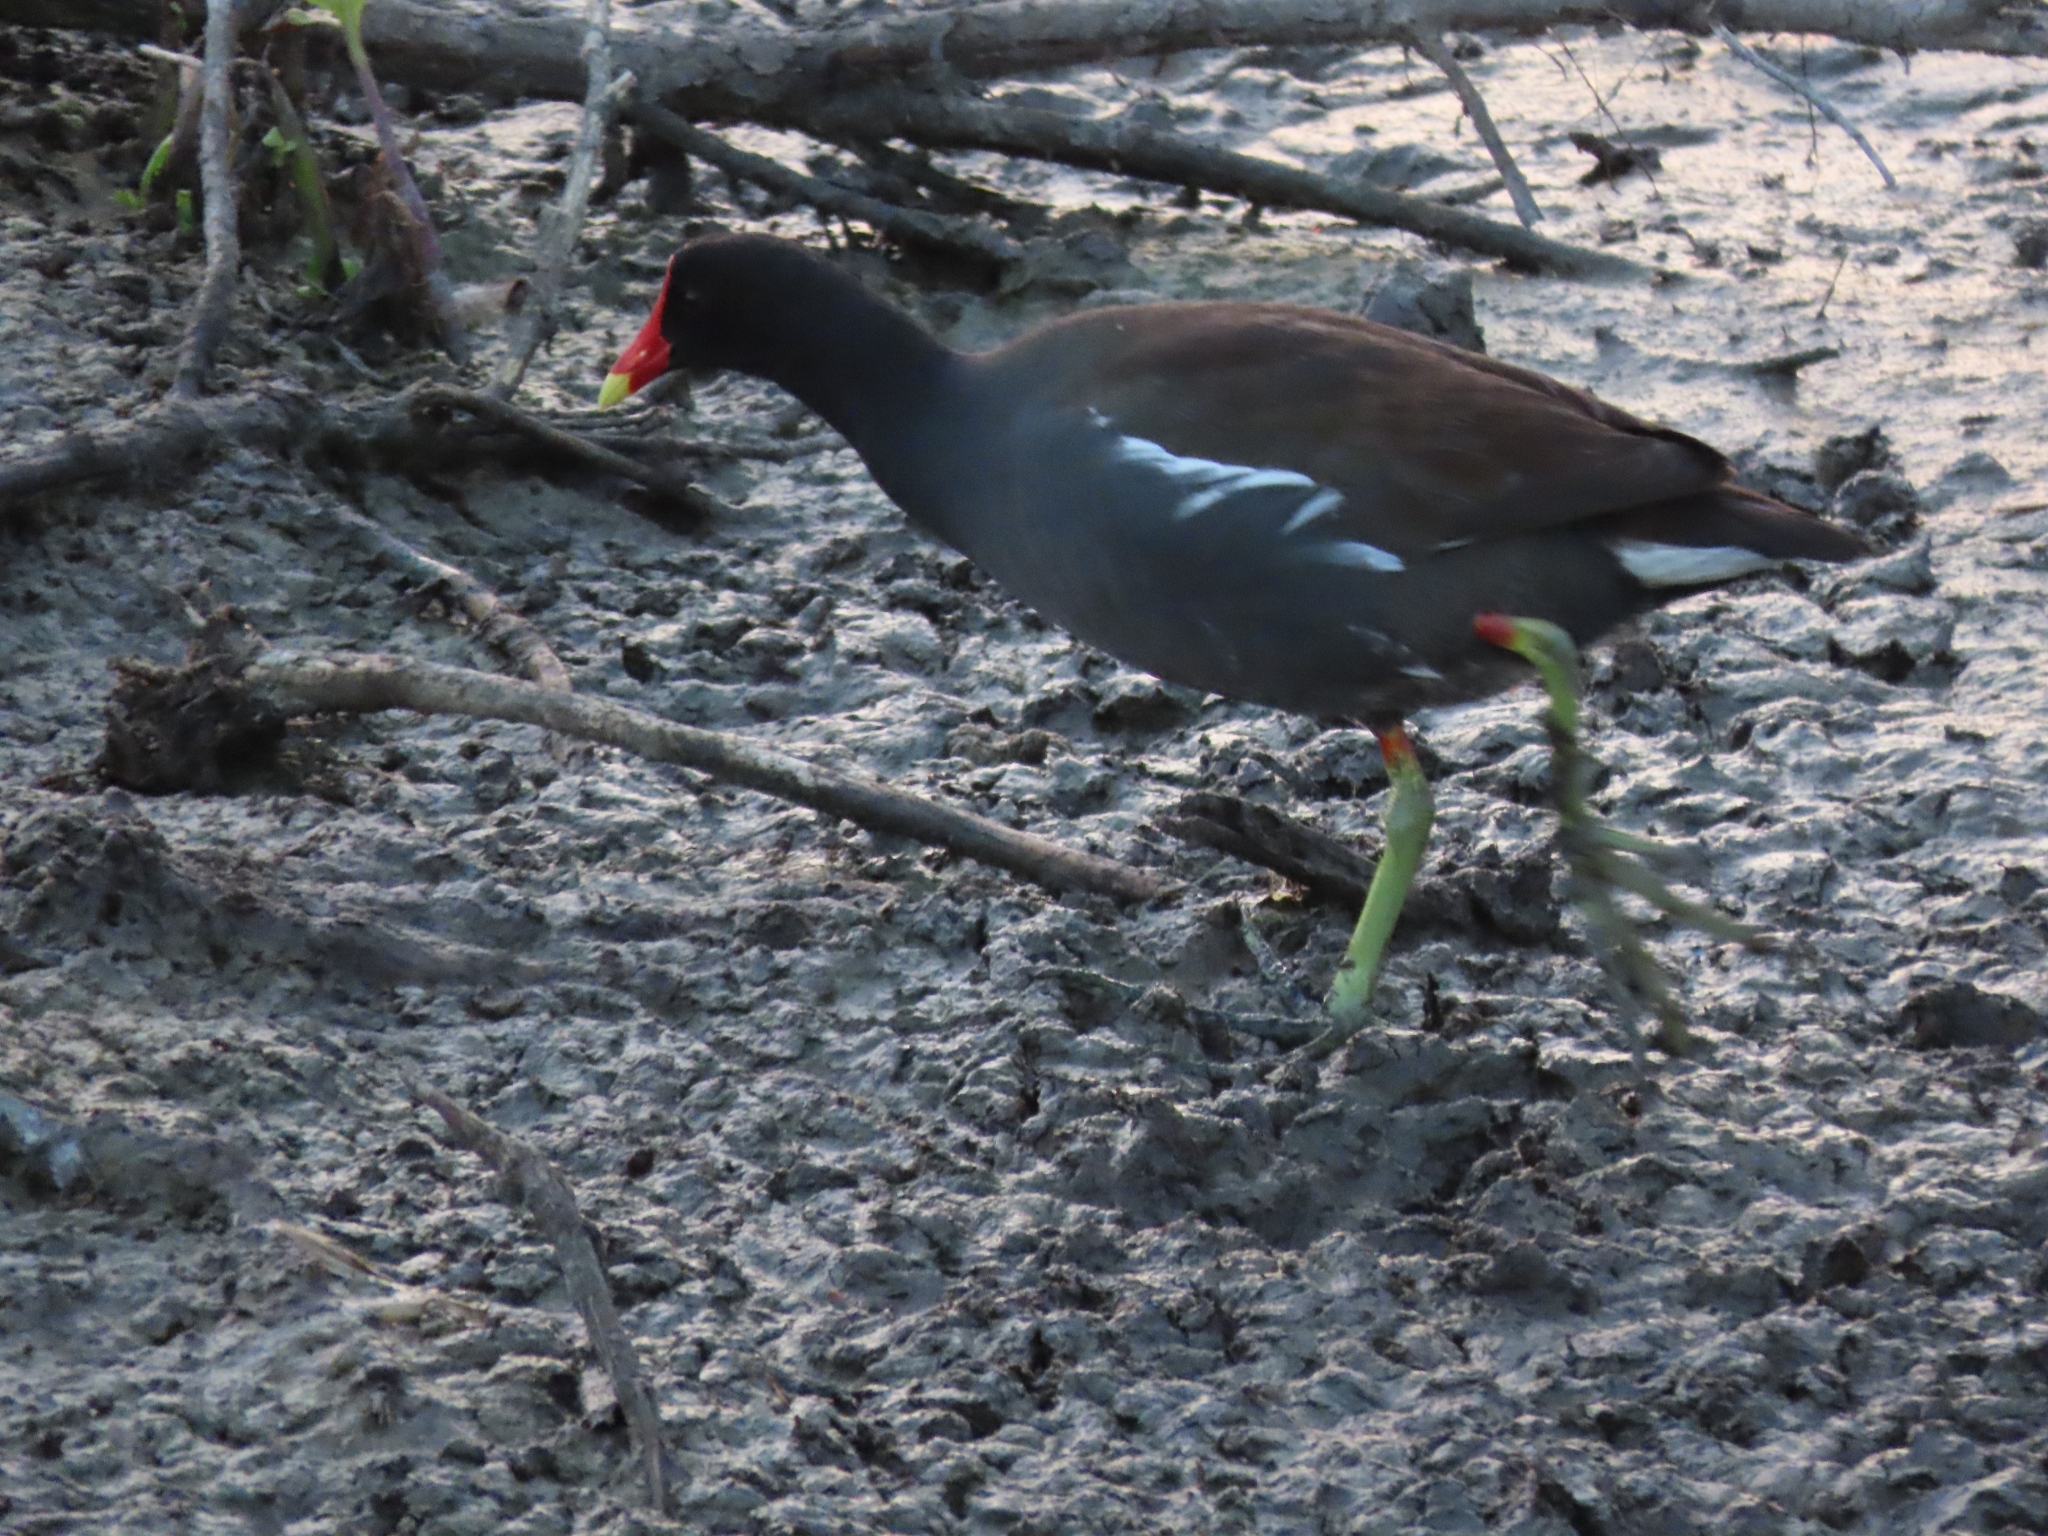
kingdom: Animalia
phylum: Chordata
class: Aves
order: Gruiformes
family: Rallidae
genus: Gallinula
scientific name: Gallinula chloropus
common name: Common moorhen
